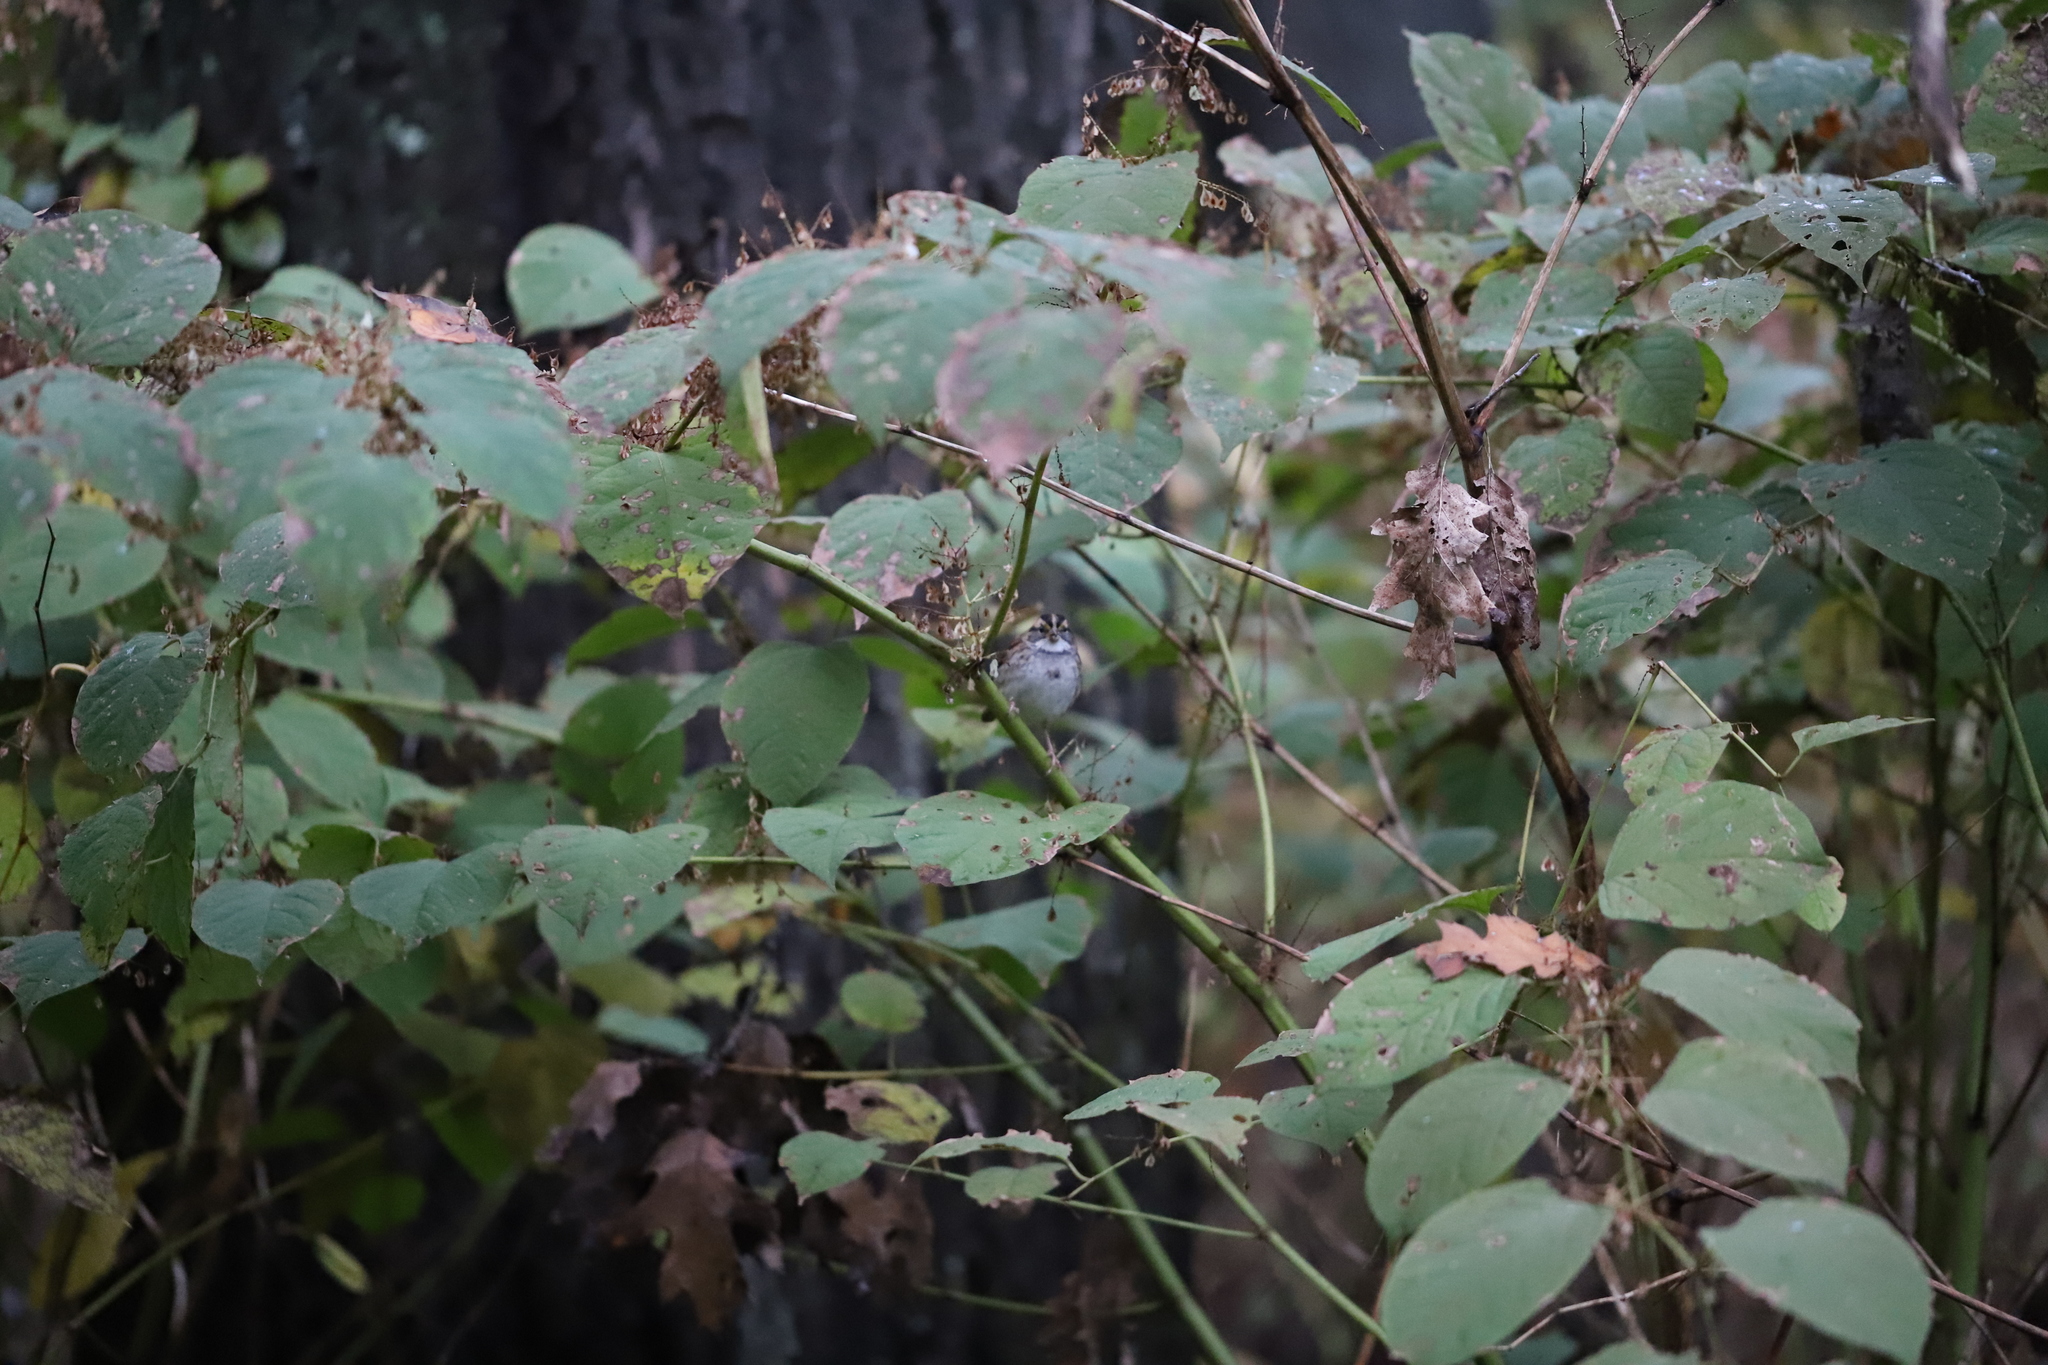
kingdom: Animalia
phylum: Chordata
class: Aves
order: Passeriformes
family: Passerellidae
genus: Zonotrichia
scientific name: Zonotrichia albicollis
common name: White-throated sparrow
